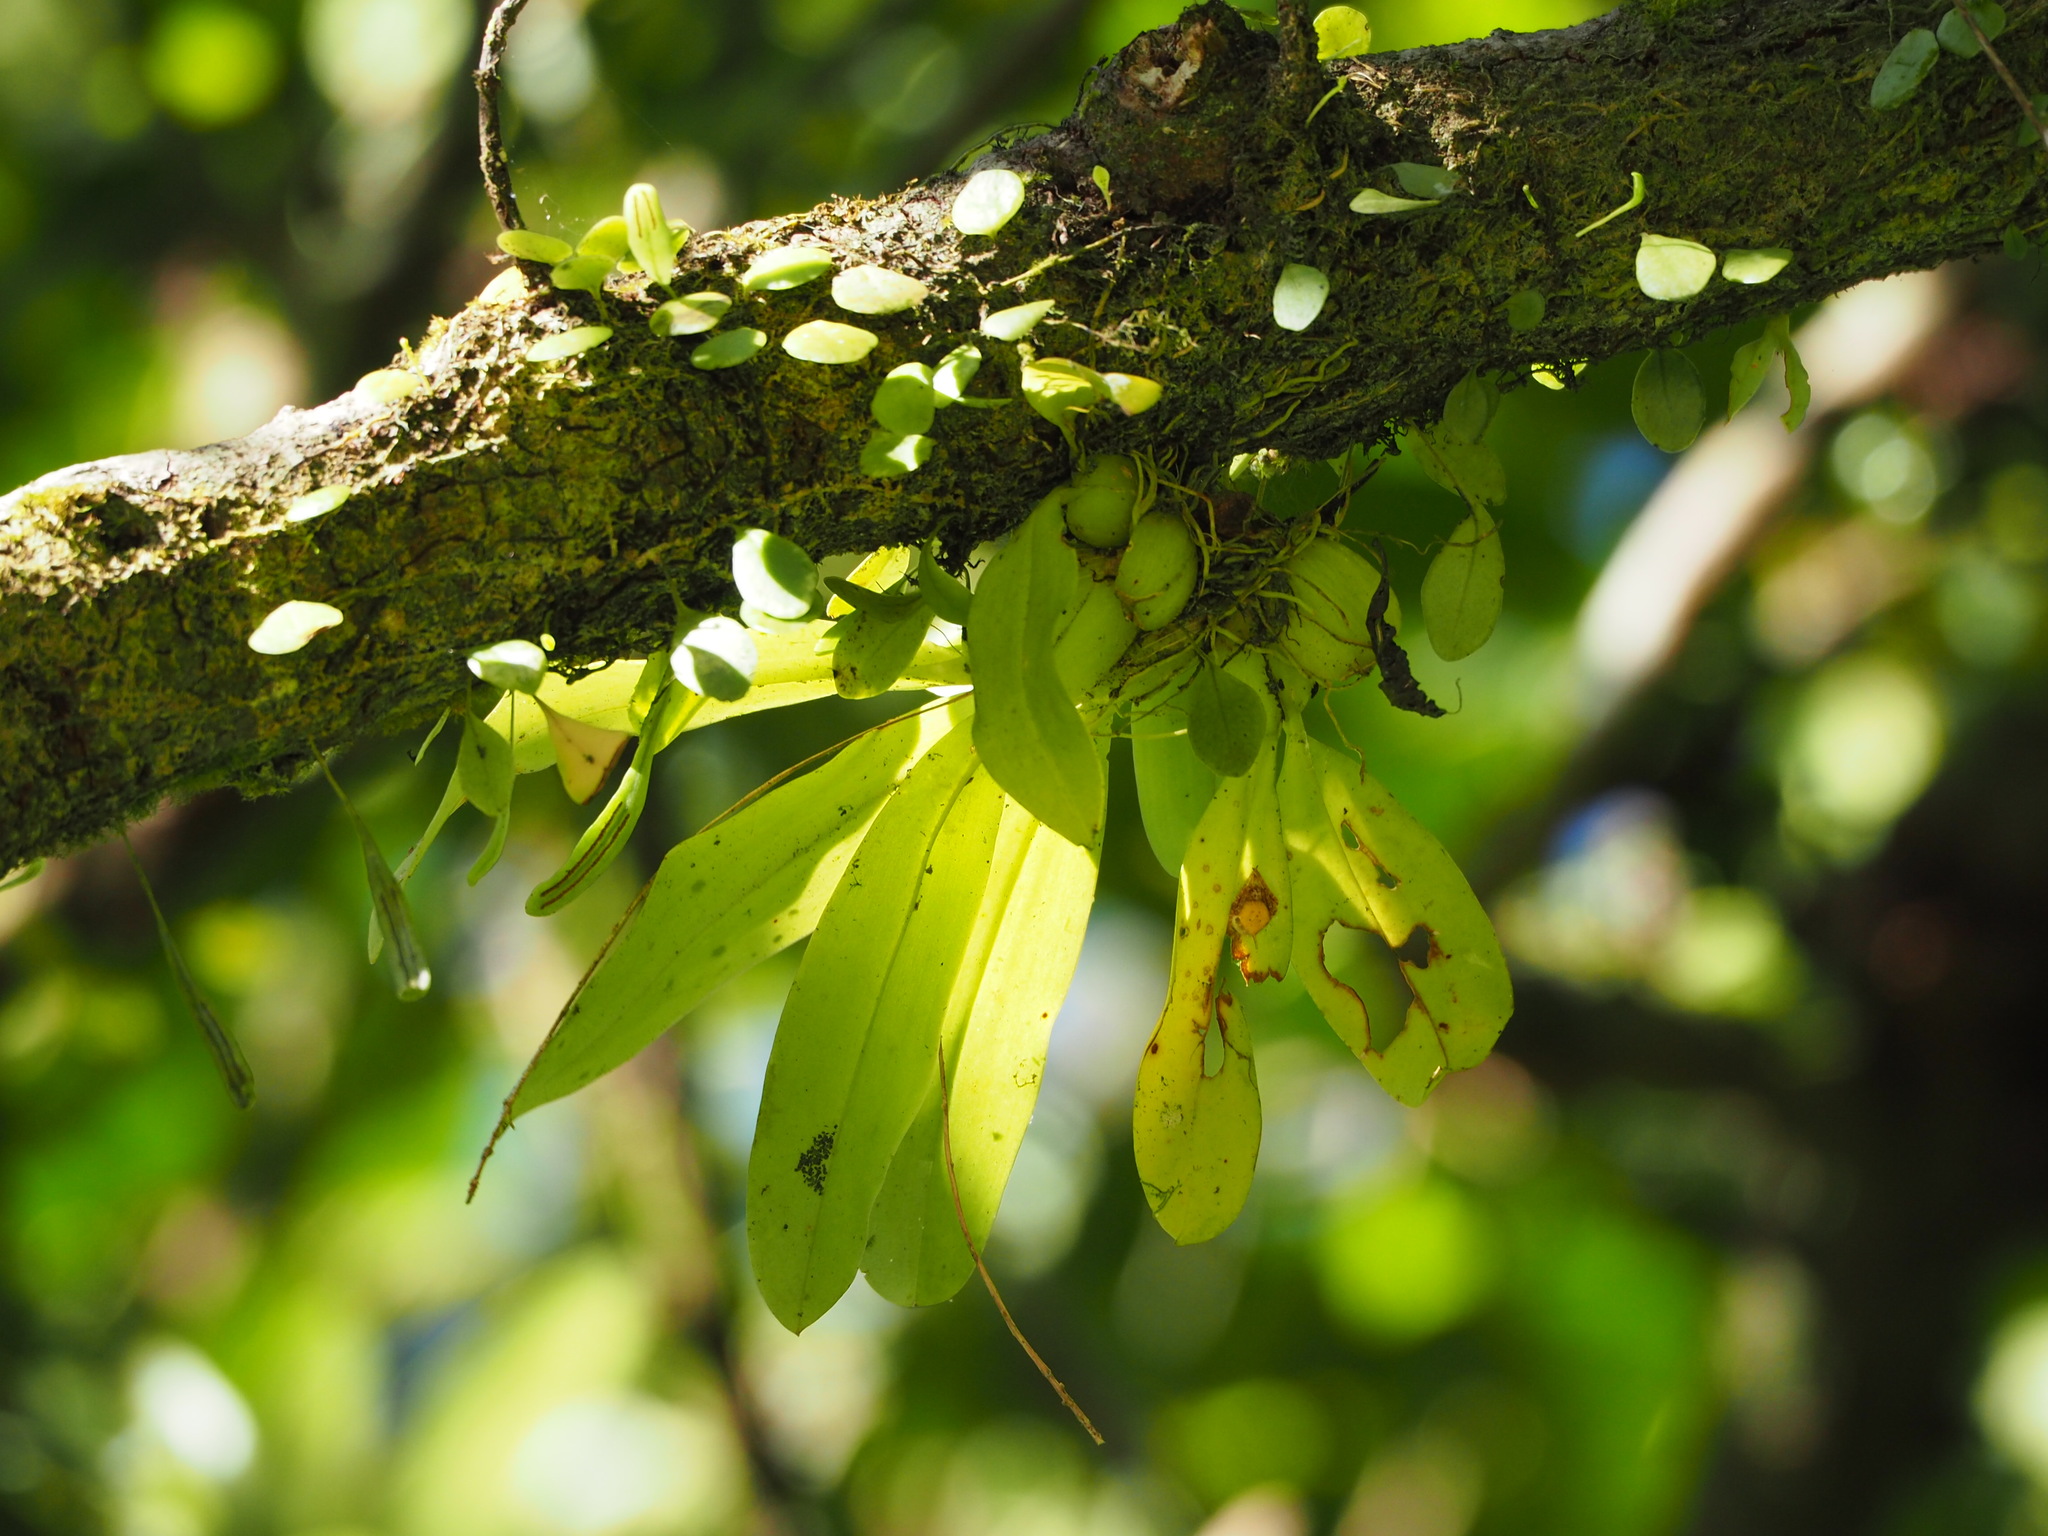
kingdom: Plantae
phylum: Tracheophyta
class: Liliopsida
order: Asparagales
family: Orchidaceae
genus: Liparis
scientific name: Liparis elliptica
